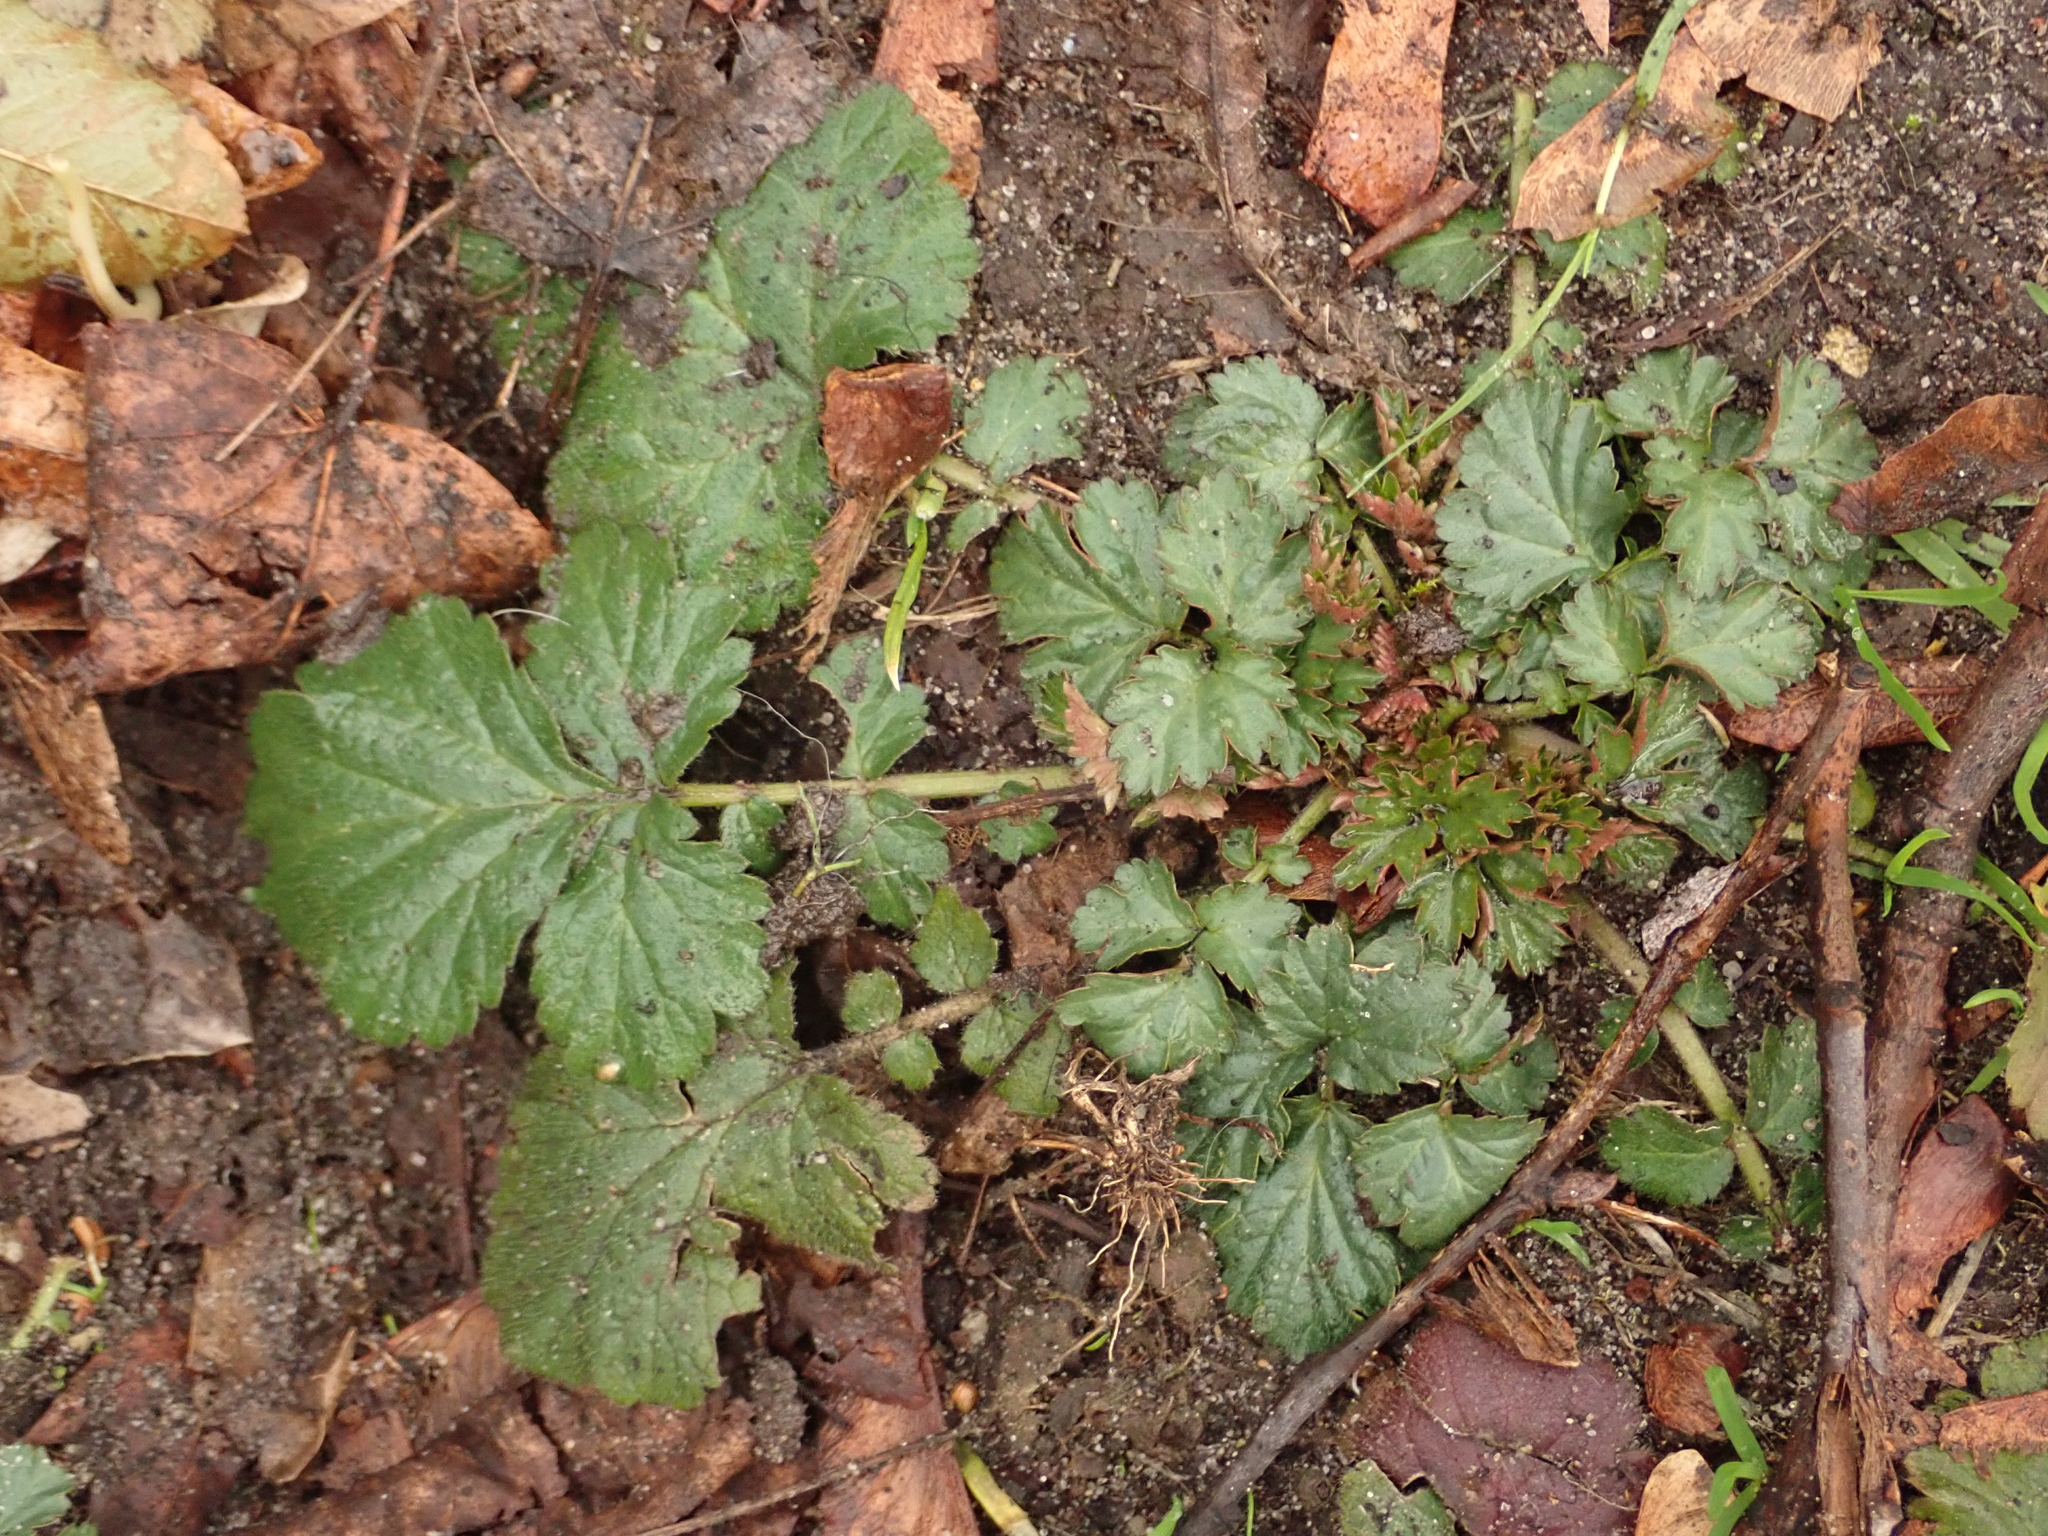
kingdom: Plantae
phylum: Tracheophyta
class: Magnoliopsida
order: Rosales
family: Rosaceae
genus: Geum
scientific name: Geum urbanum
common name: Wood avens
